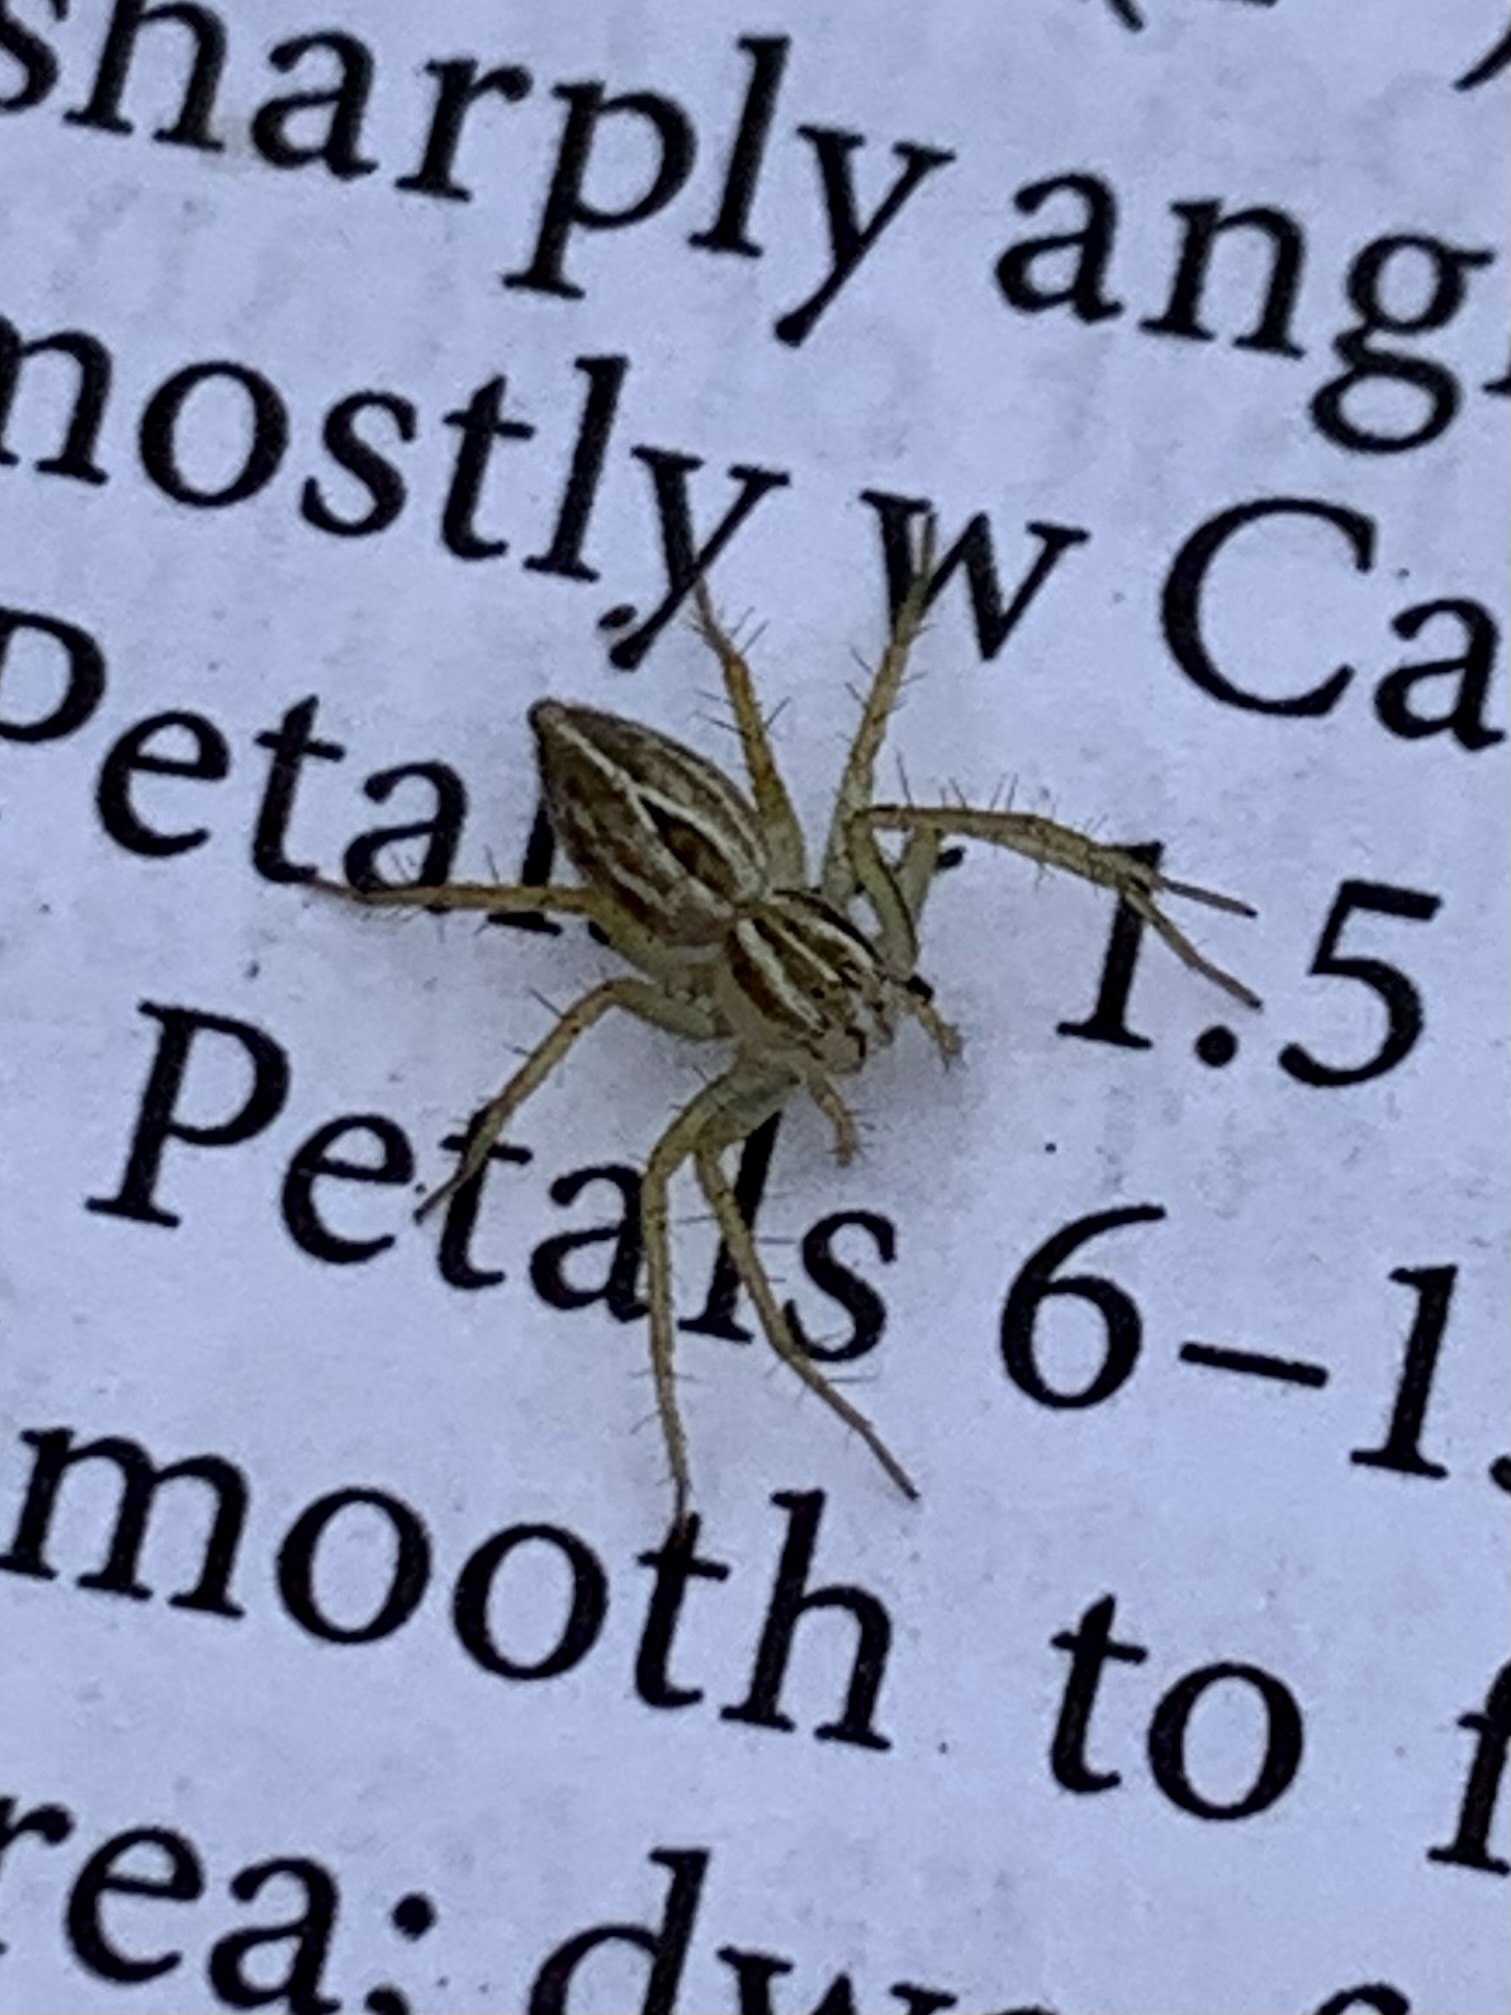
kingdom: Animalia
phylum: Arthropoda
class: Arachnida
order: Araneae
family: Oxyopidae
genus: Oxyopes
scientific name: Oxyopes salticus
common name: Lynx spiders
